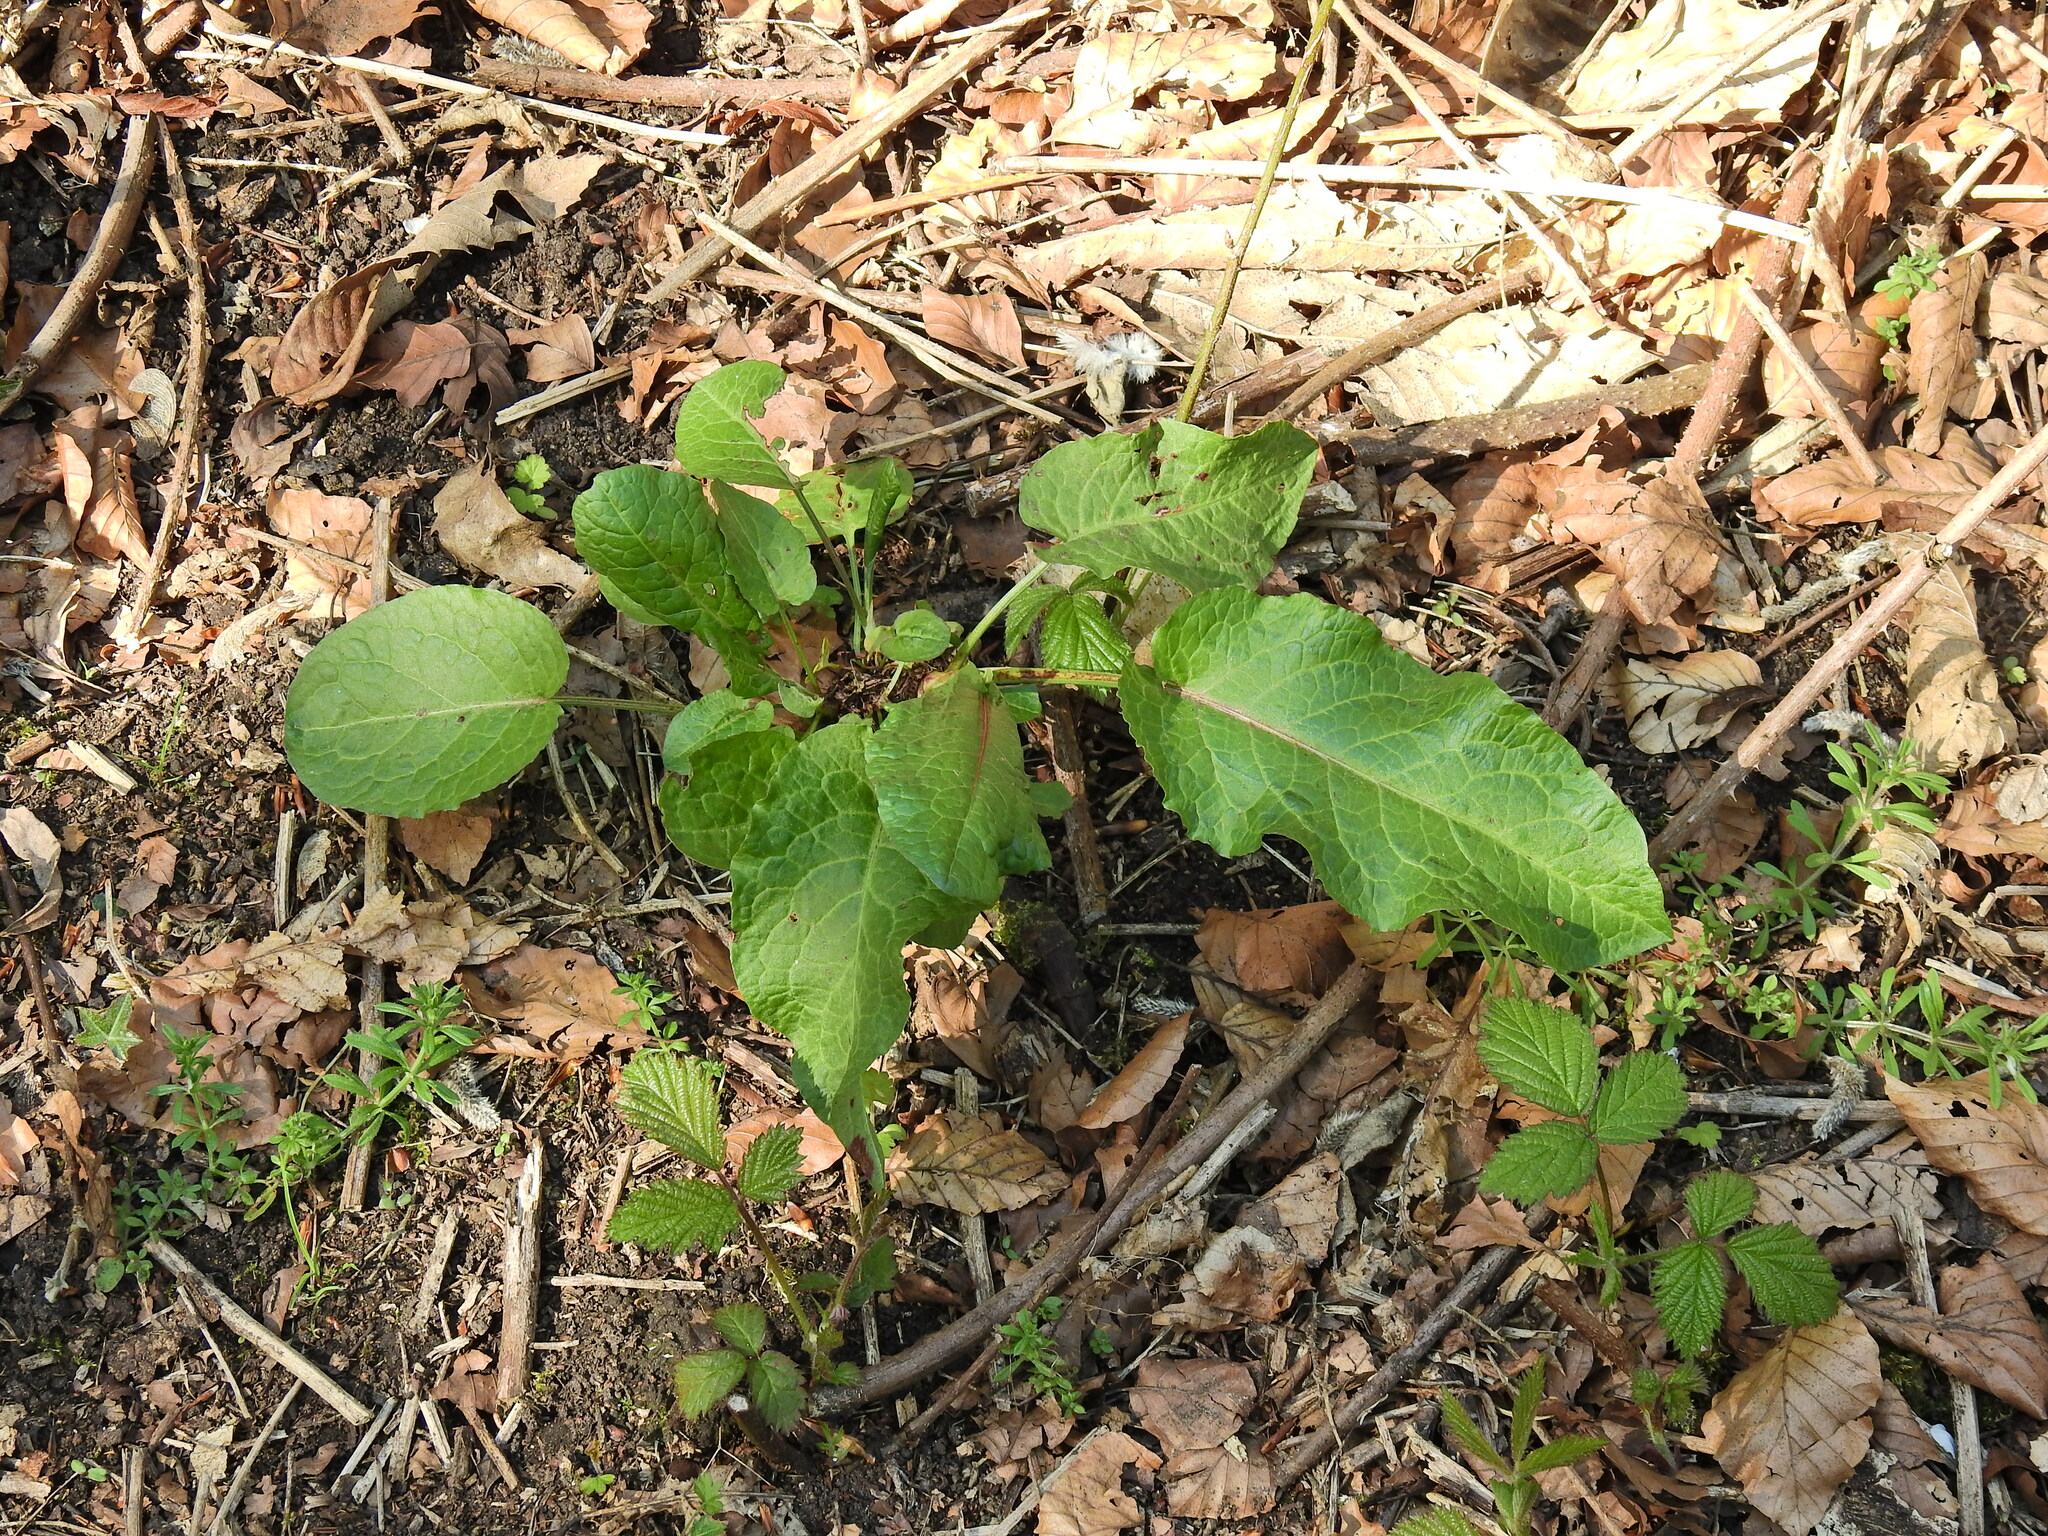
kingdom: Plantae
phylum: Tracheophyta
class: Magnoliopsida
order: Caryophyllales
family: Polygonaceae
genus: Rumex
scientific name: Rumex obtusifolius
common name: Bitter dock
